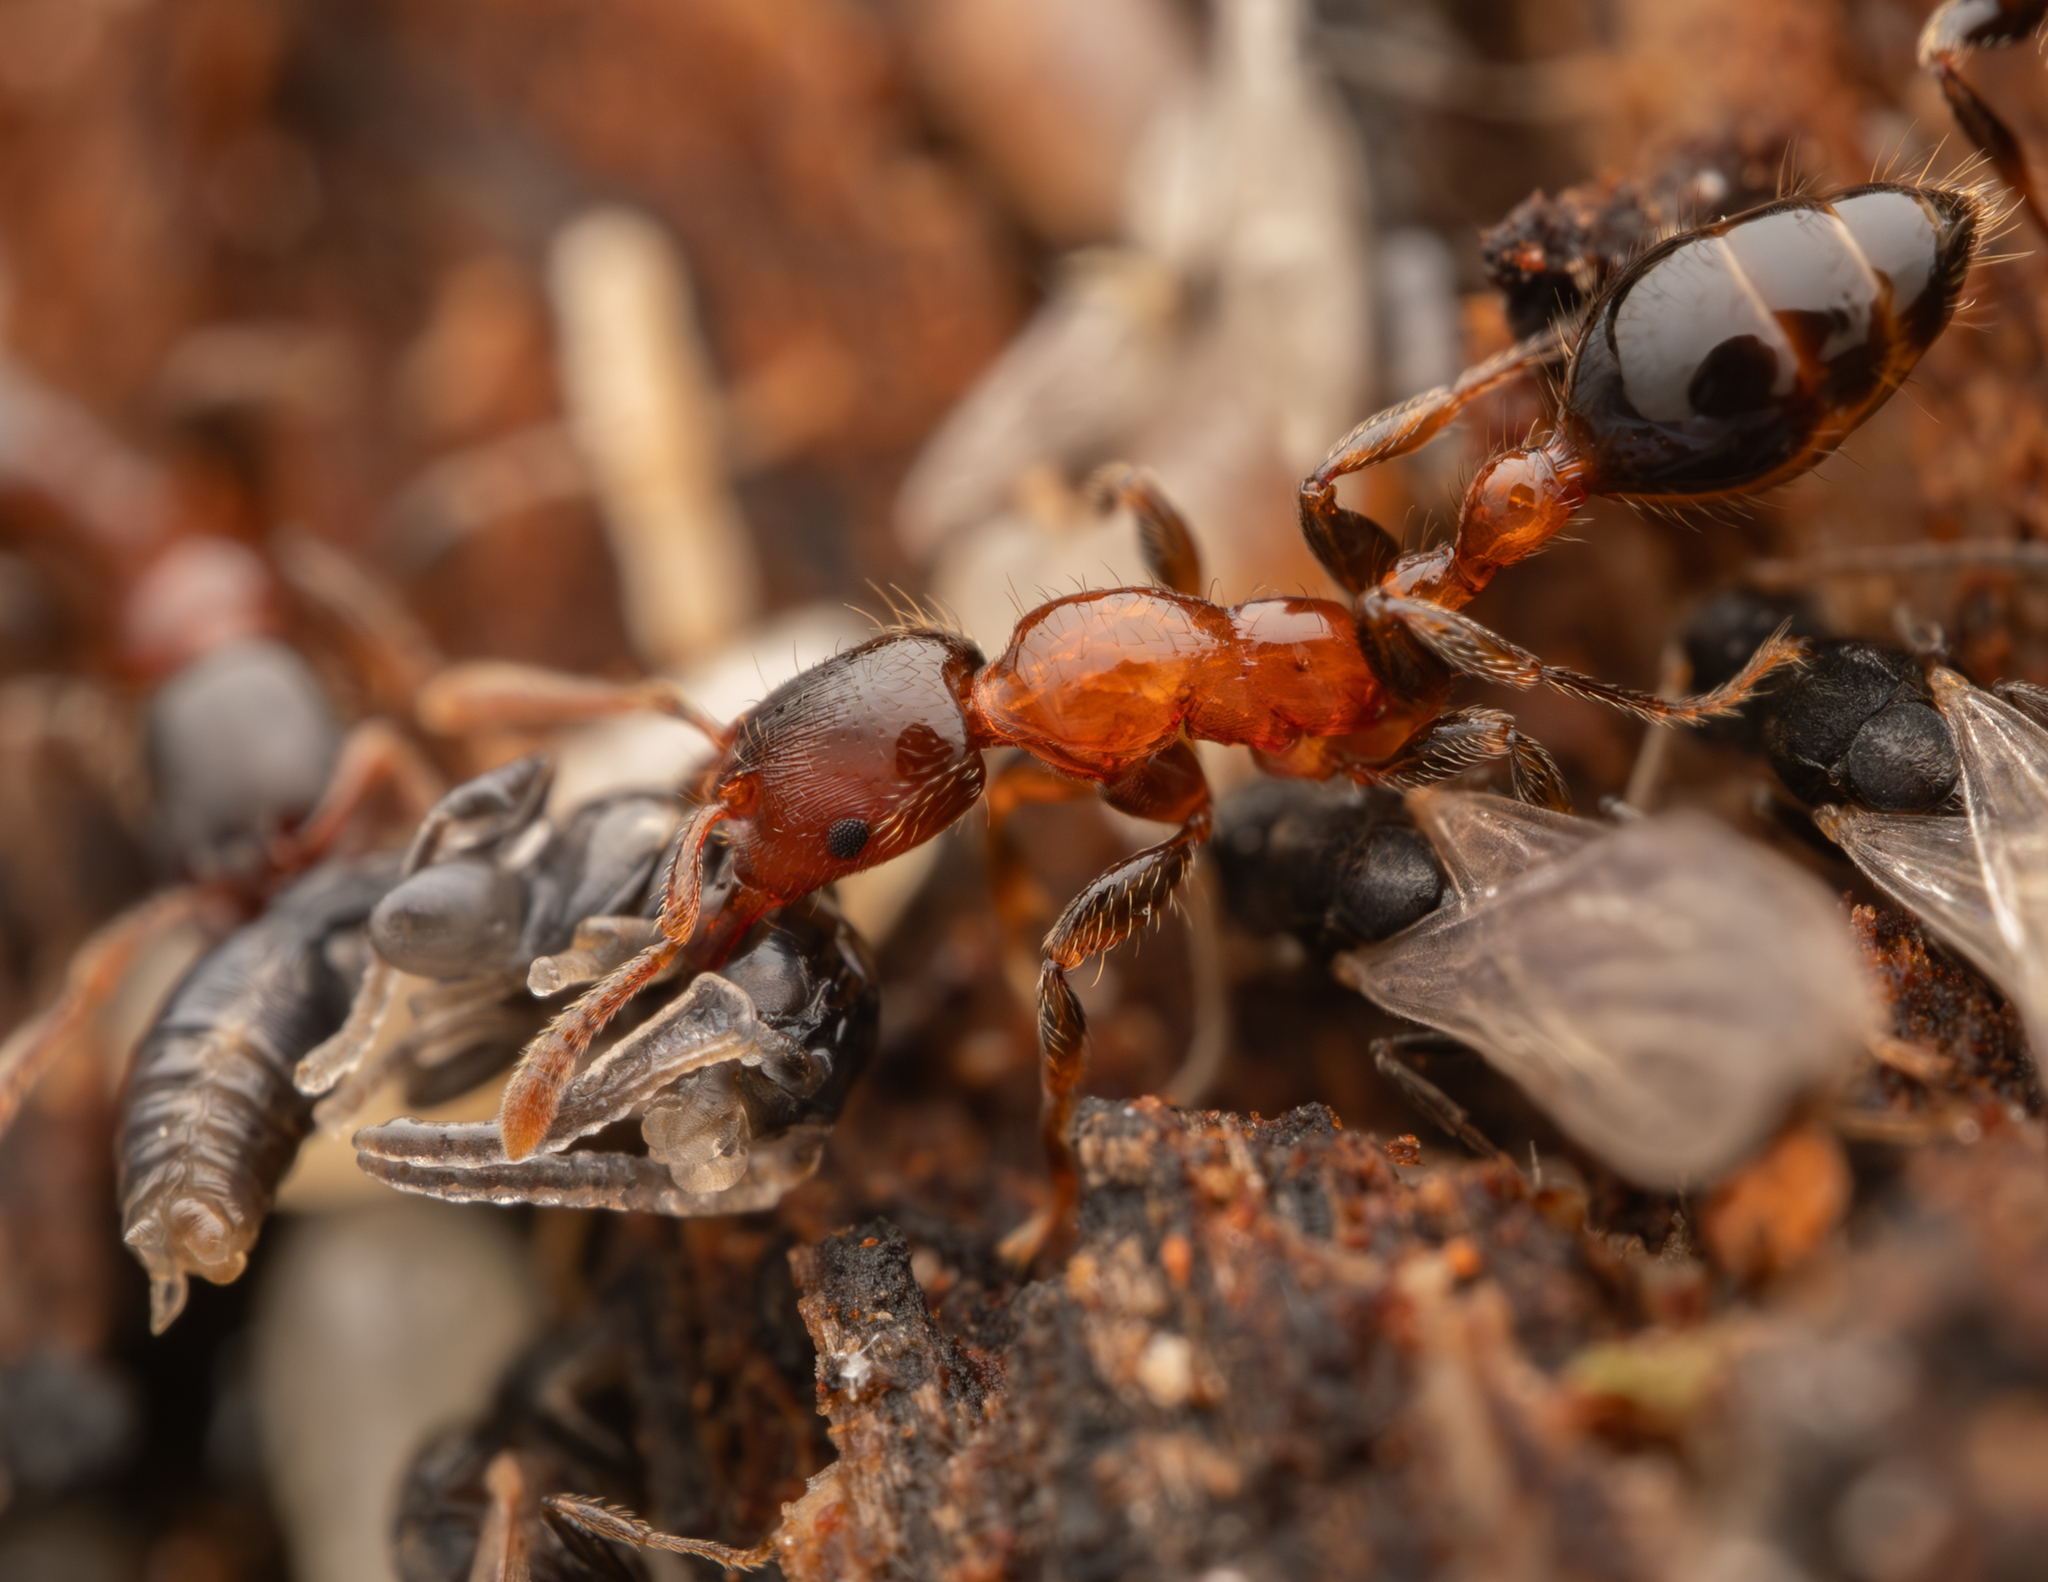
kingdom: Animalia
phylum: Arthropoda
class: Insecta
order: Hymenoptera
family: Formicidae
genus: Podomyrma
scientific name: Podomyrma minor
